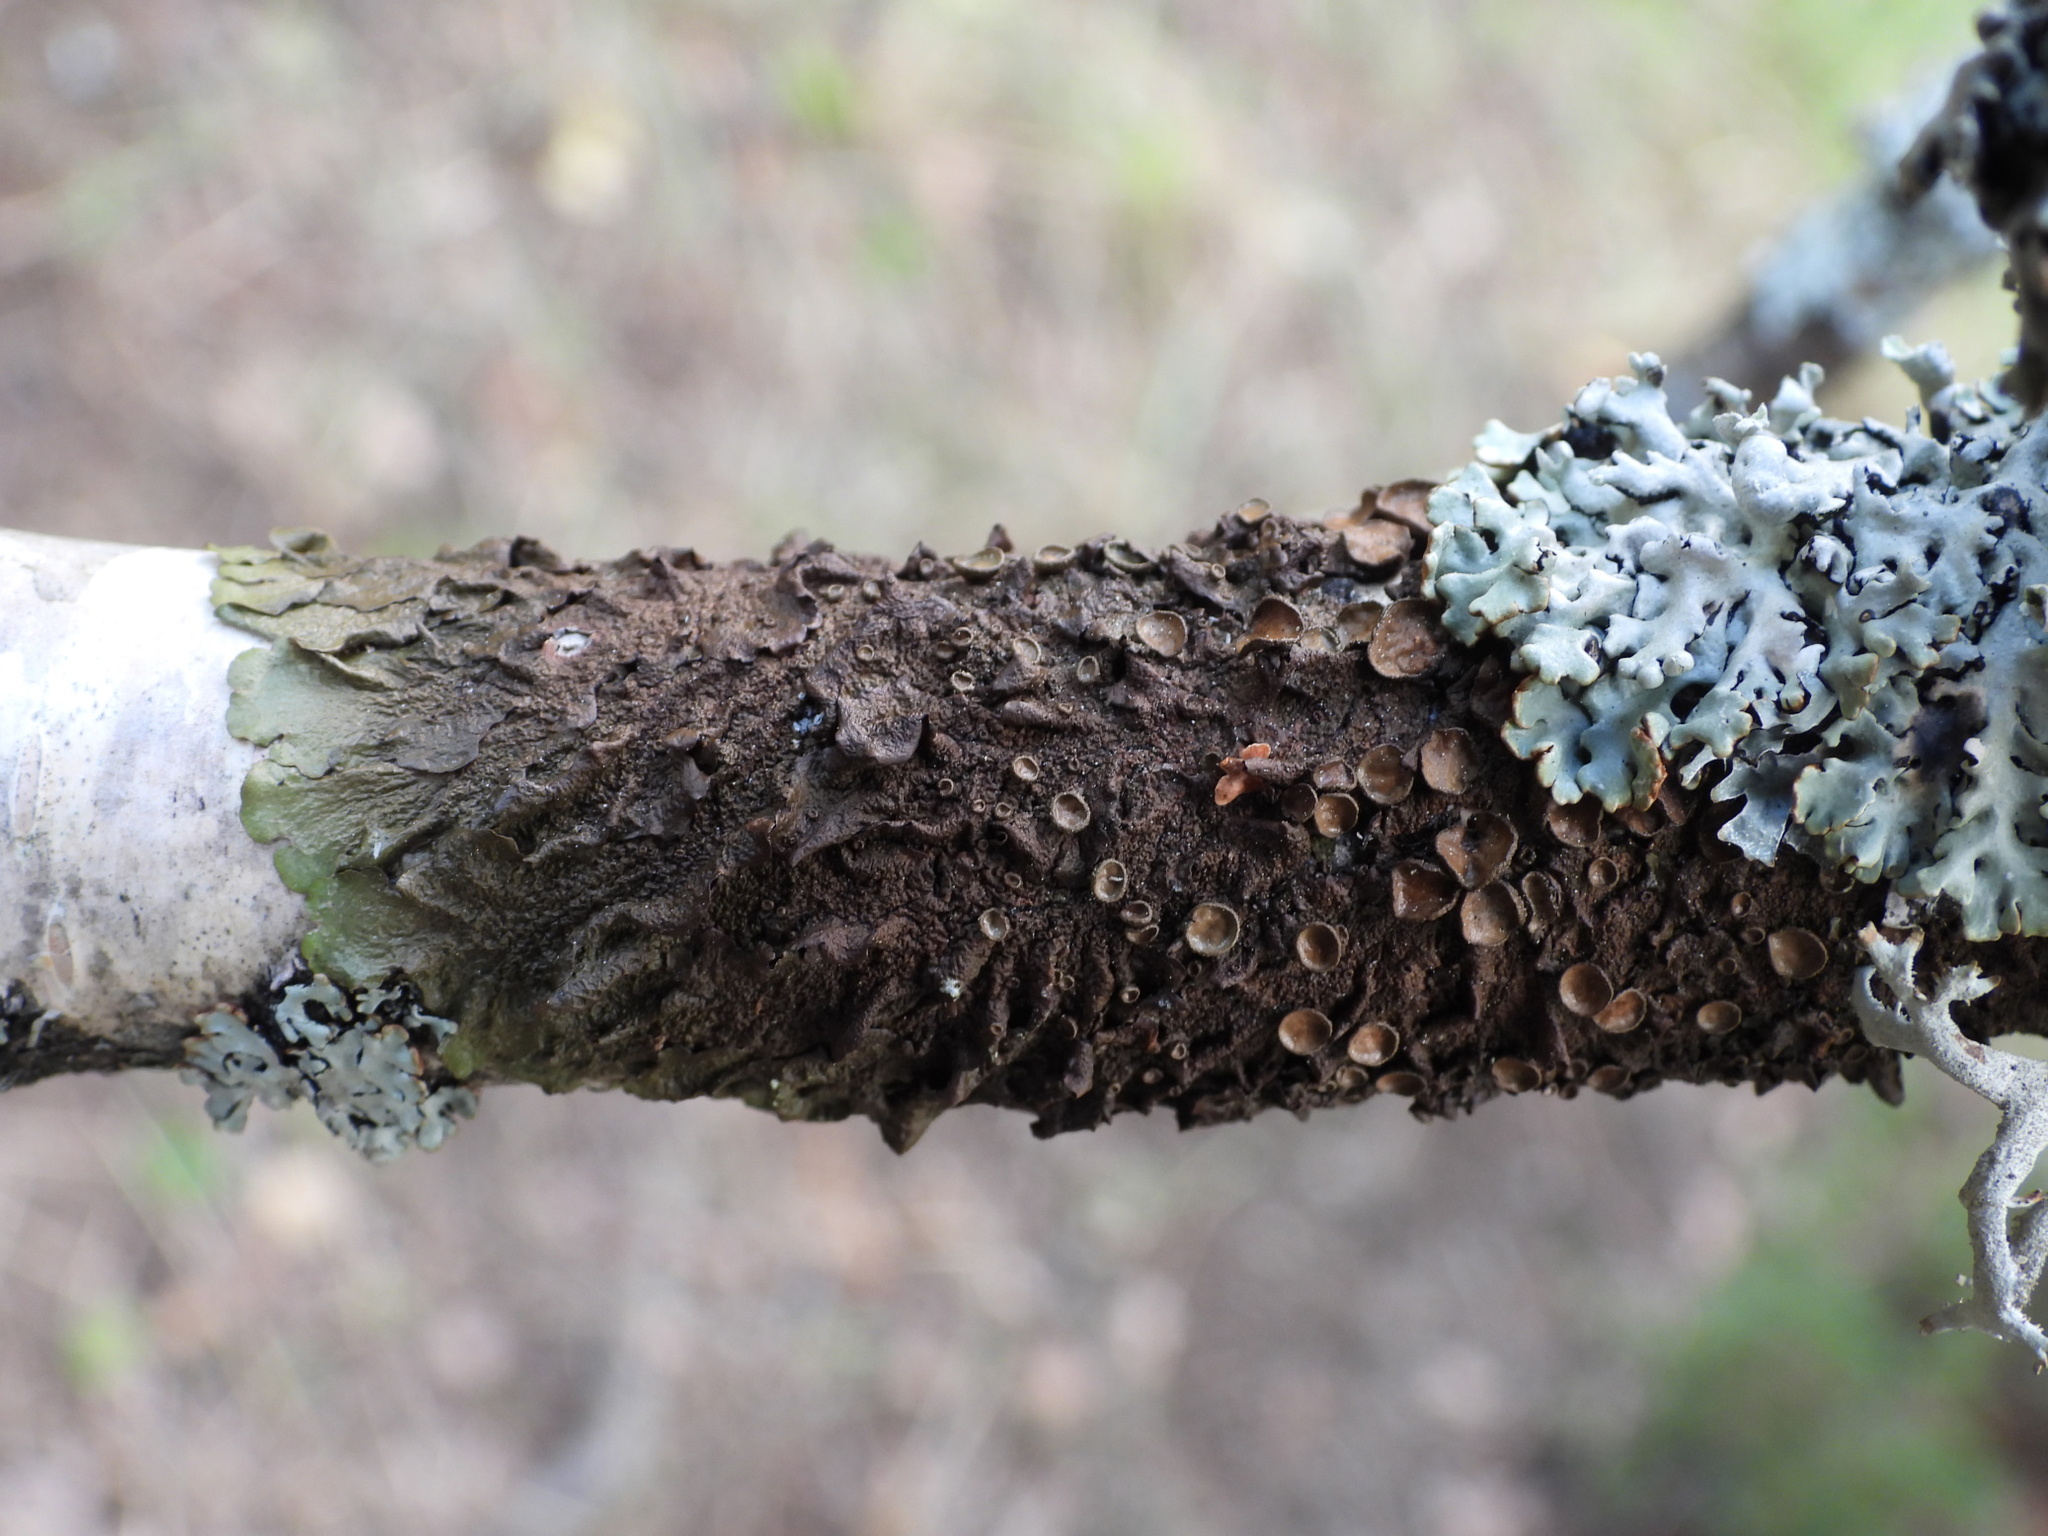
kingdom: Fungi
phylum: Ascomycota
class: Lecanoromycetes
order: Lecanorales
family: Parmeliaceae
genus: Melanohalea
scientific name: Melanohalea olivacea
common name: Spotted camouflage lichen
